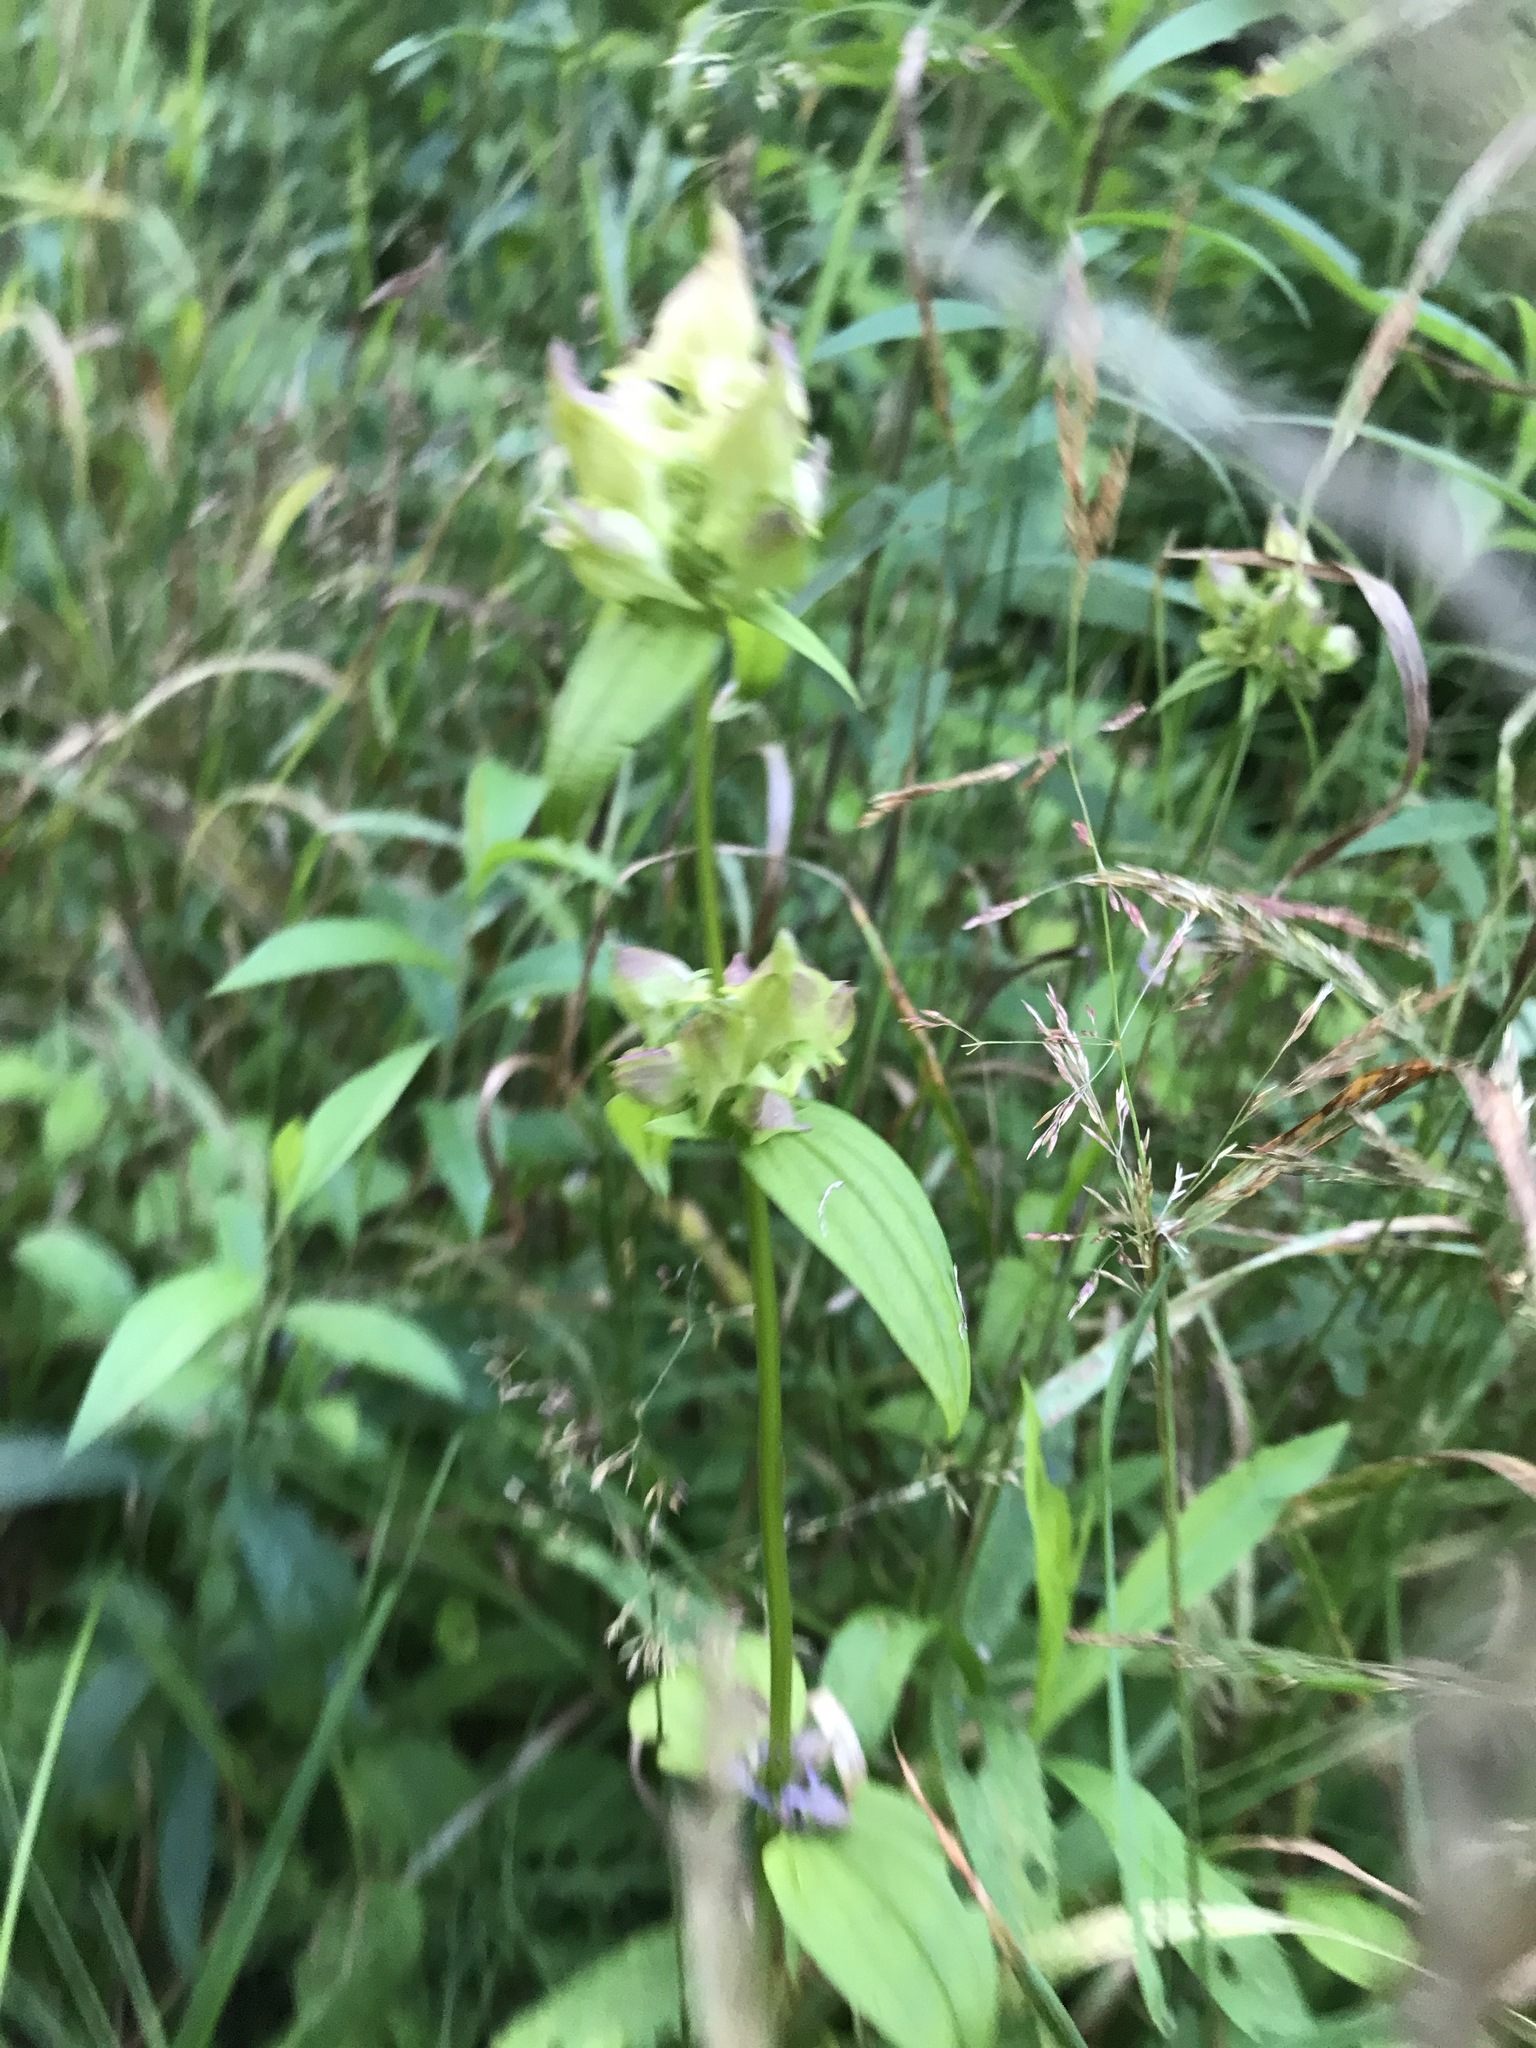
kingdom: Plantae
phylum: Tracheophyta
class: Magnoliopsida
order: Gentianales
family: Gentianaceae
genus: Halenia
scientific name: Halenia deflexa
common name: American spurred gentian
